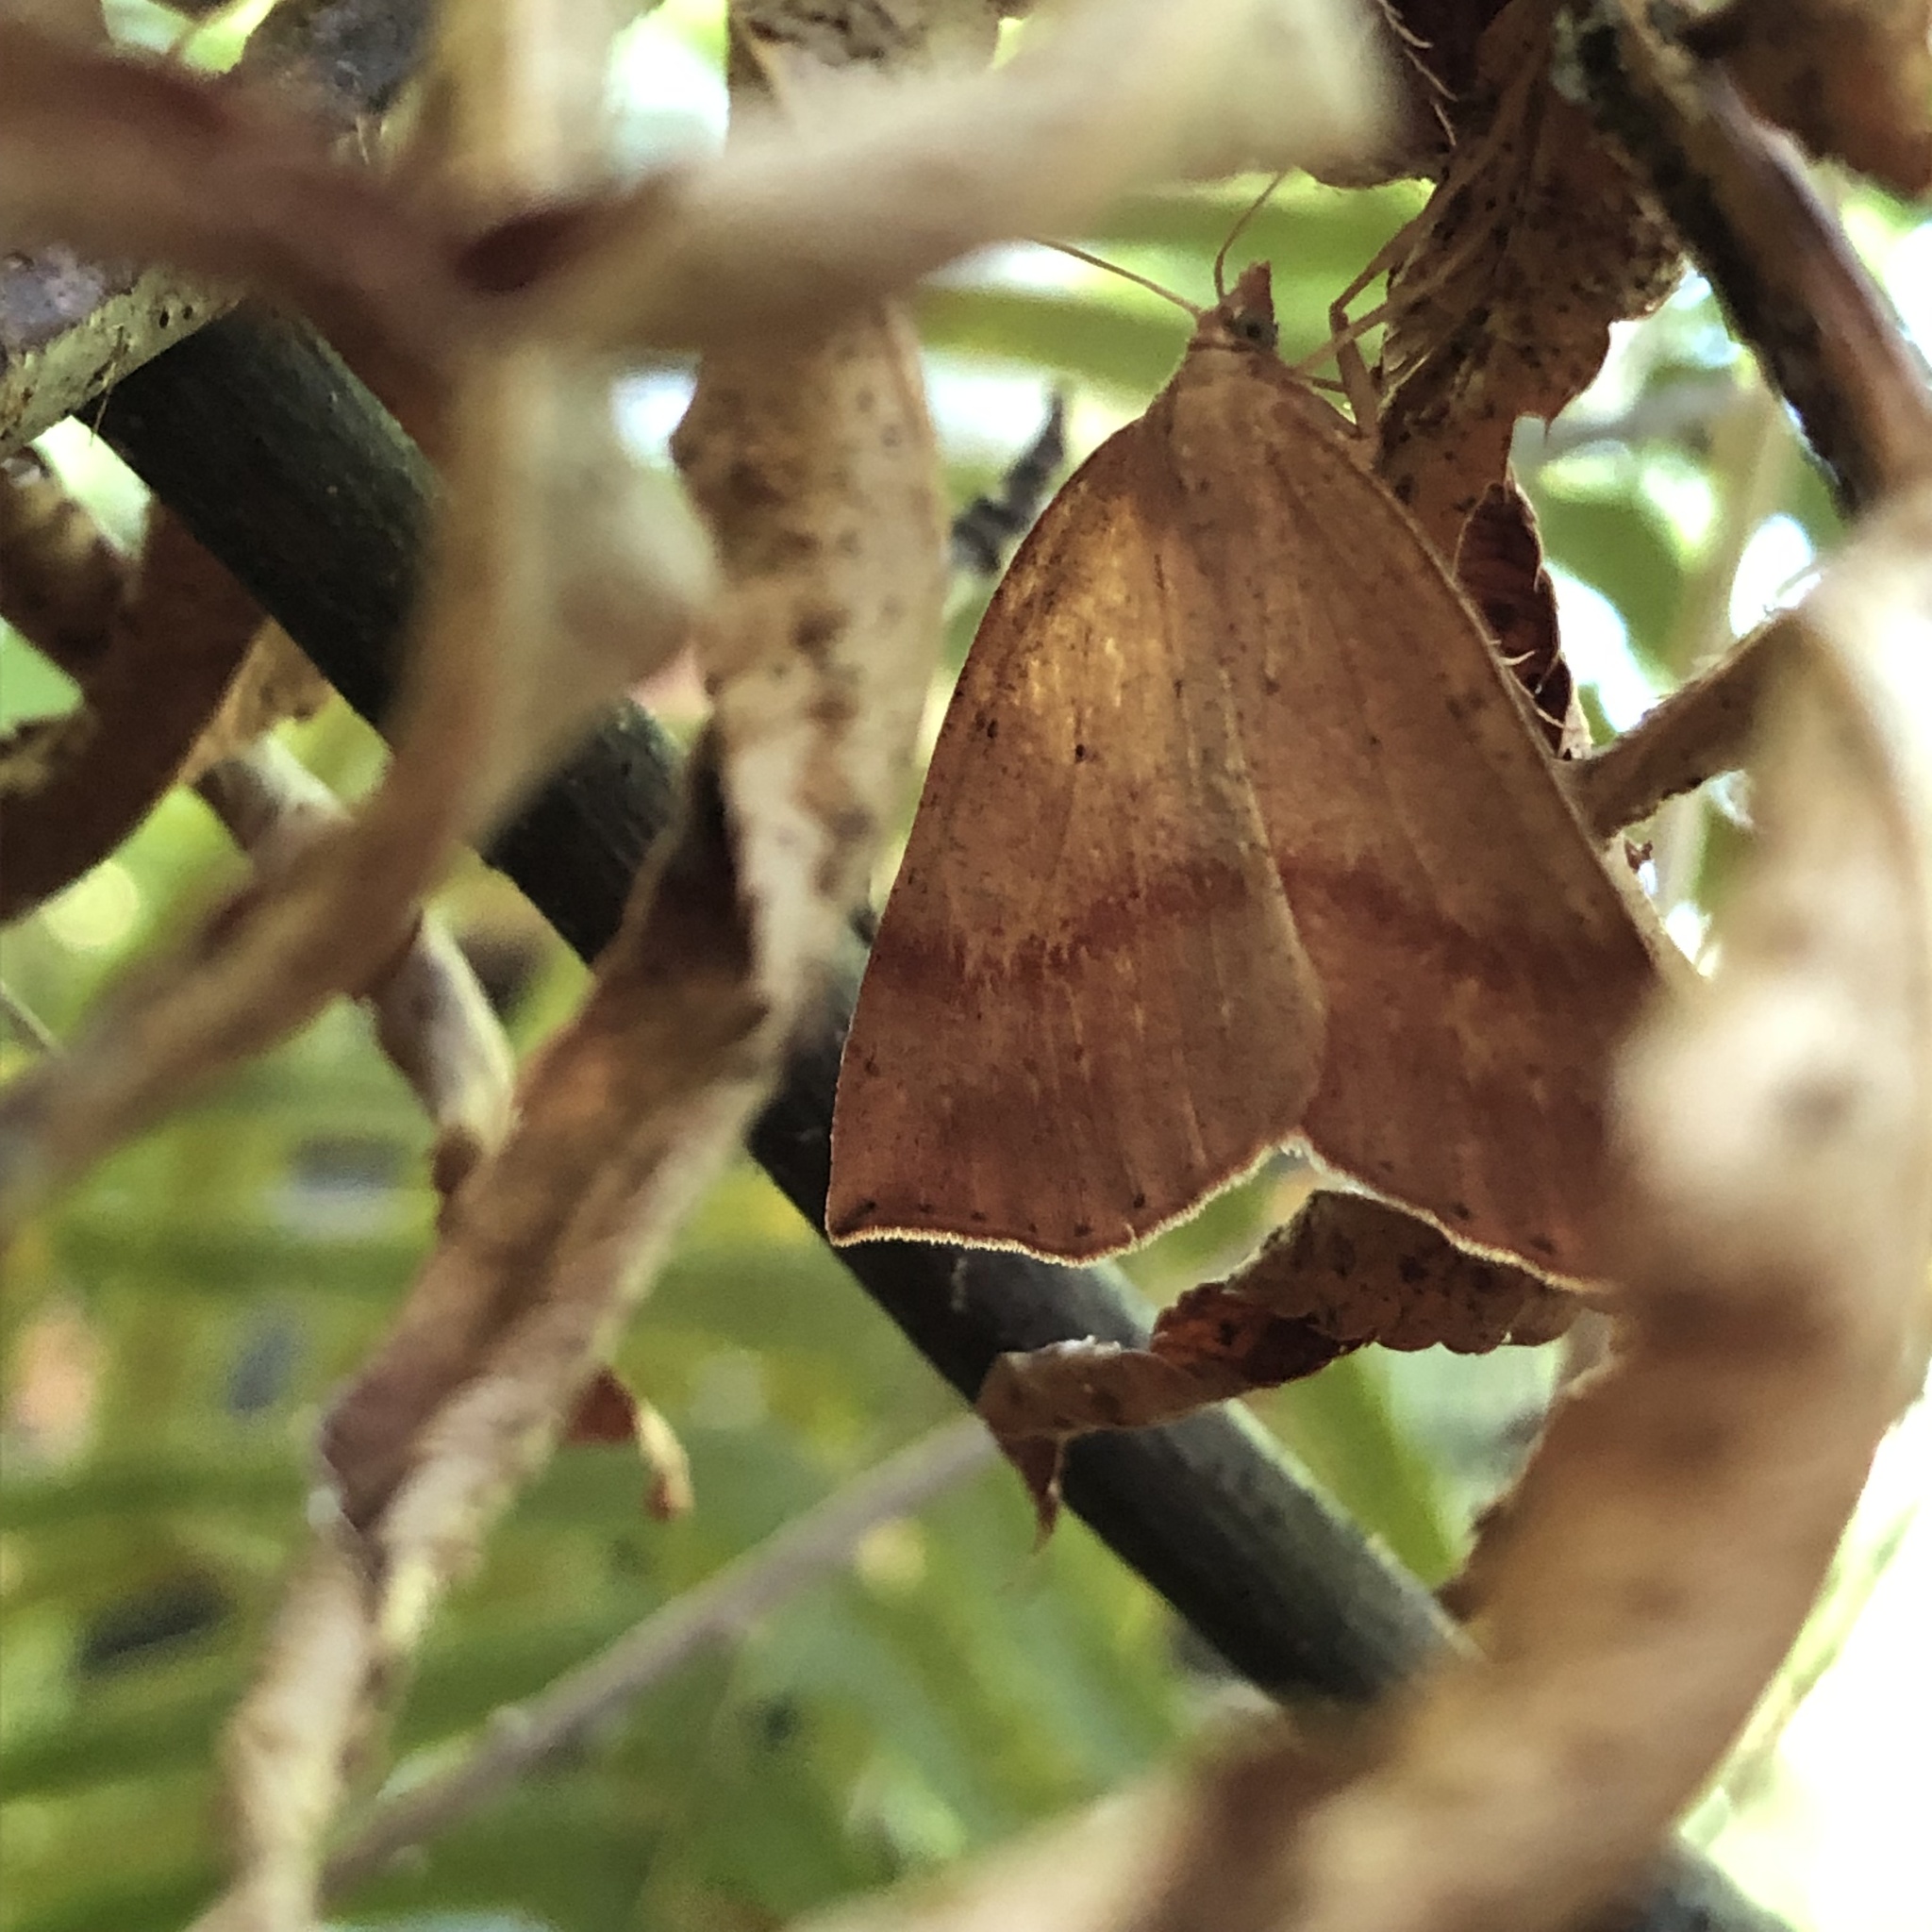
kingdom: Animalia
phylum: Arthropoda
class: Insecta
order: Lepidoptera
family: Geometridae
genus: Thallophaga
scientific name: Thallophaga hyperborea
